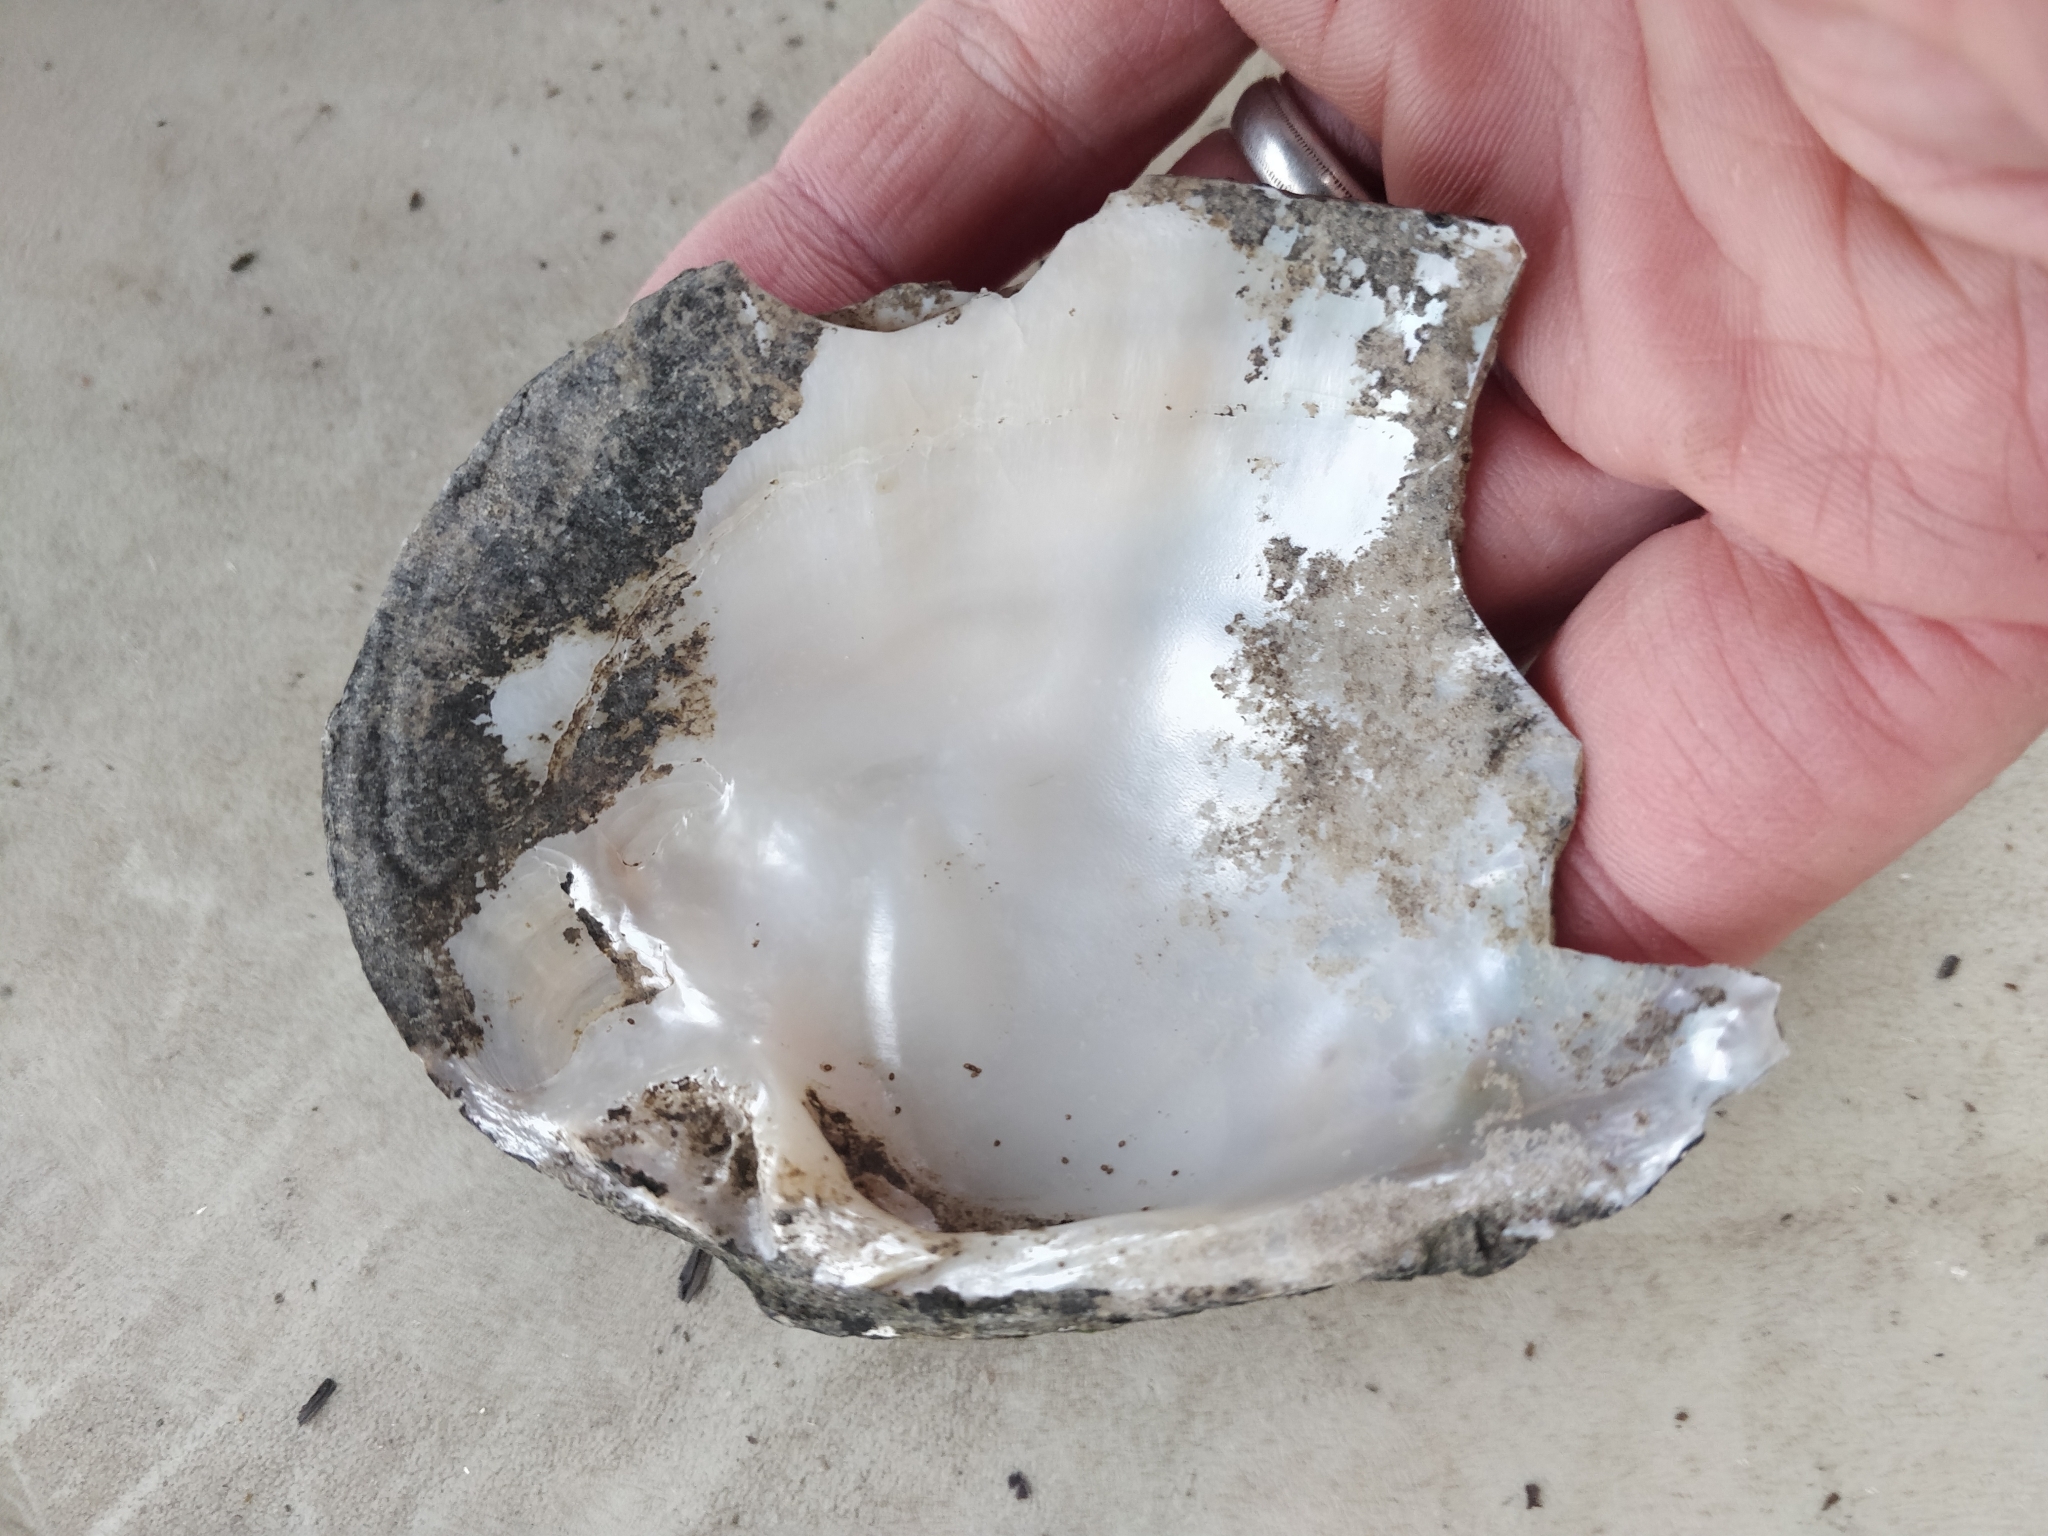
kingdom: Animalia
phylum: Mollusca
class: Bivalvia
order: Unionida
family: Unionidae
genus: Lasmigona
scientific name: Lasmigona complanata
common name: White heelsplitter
